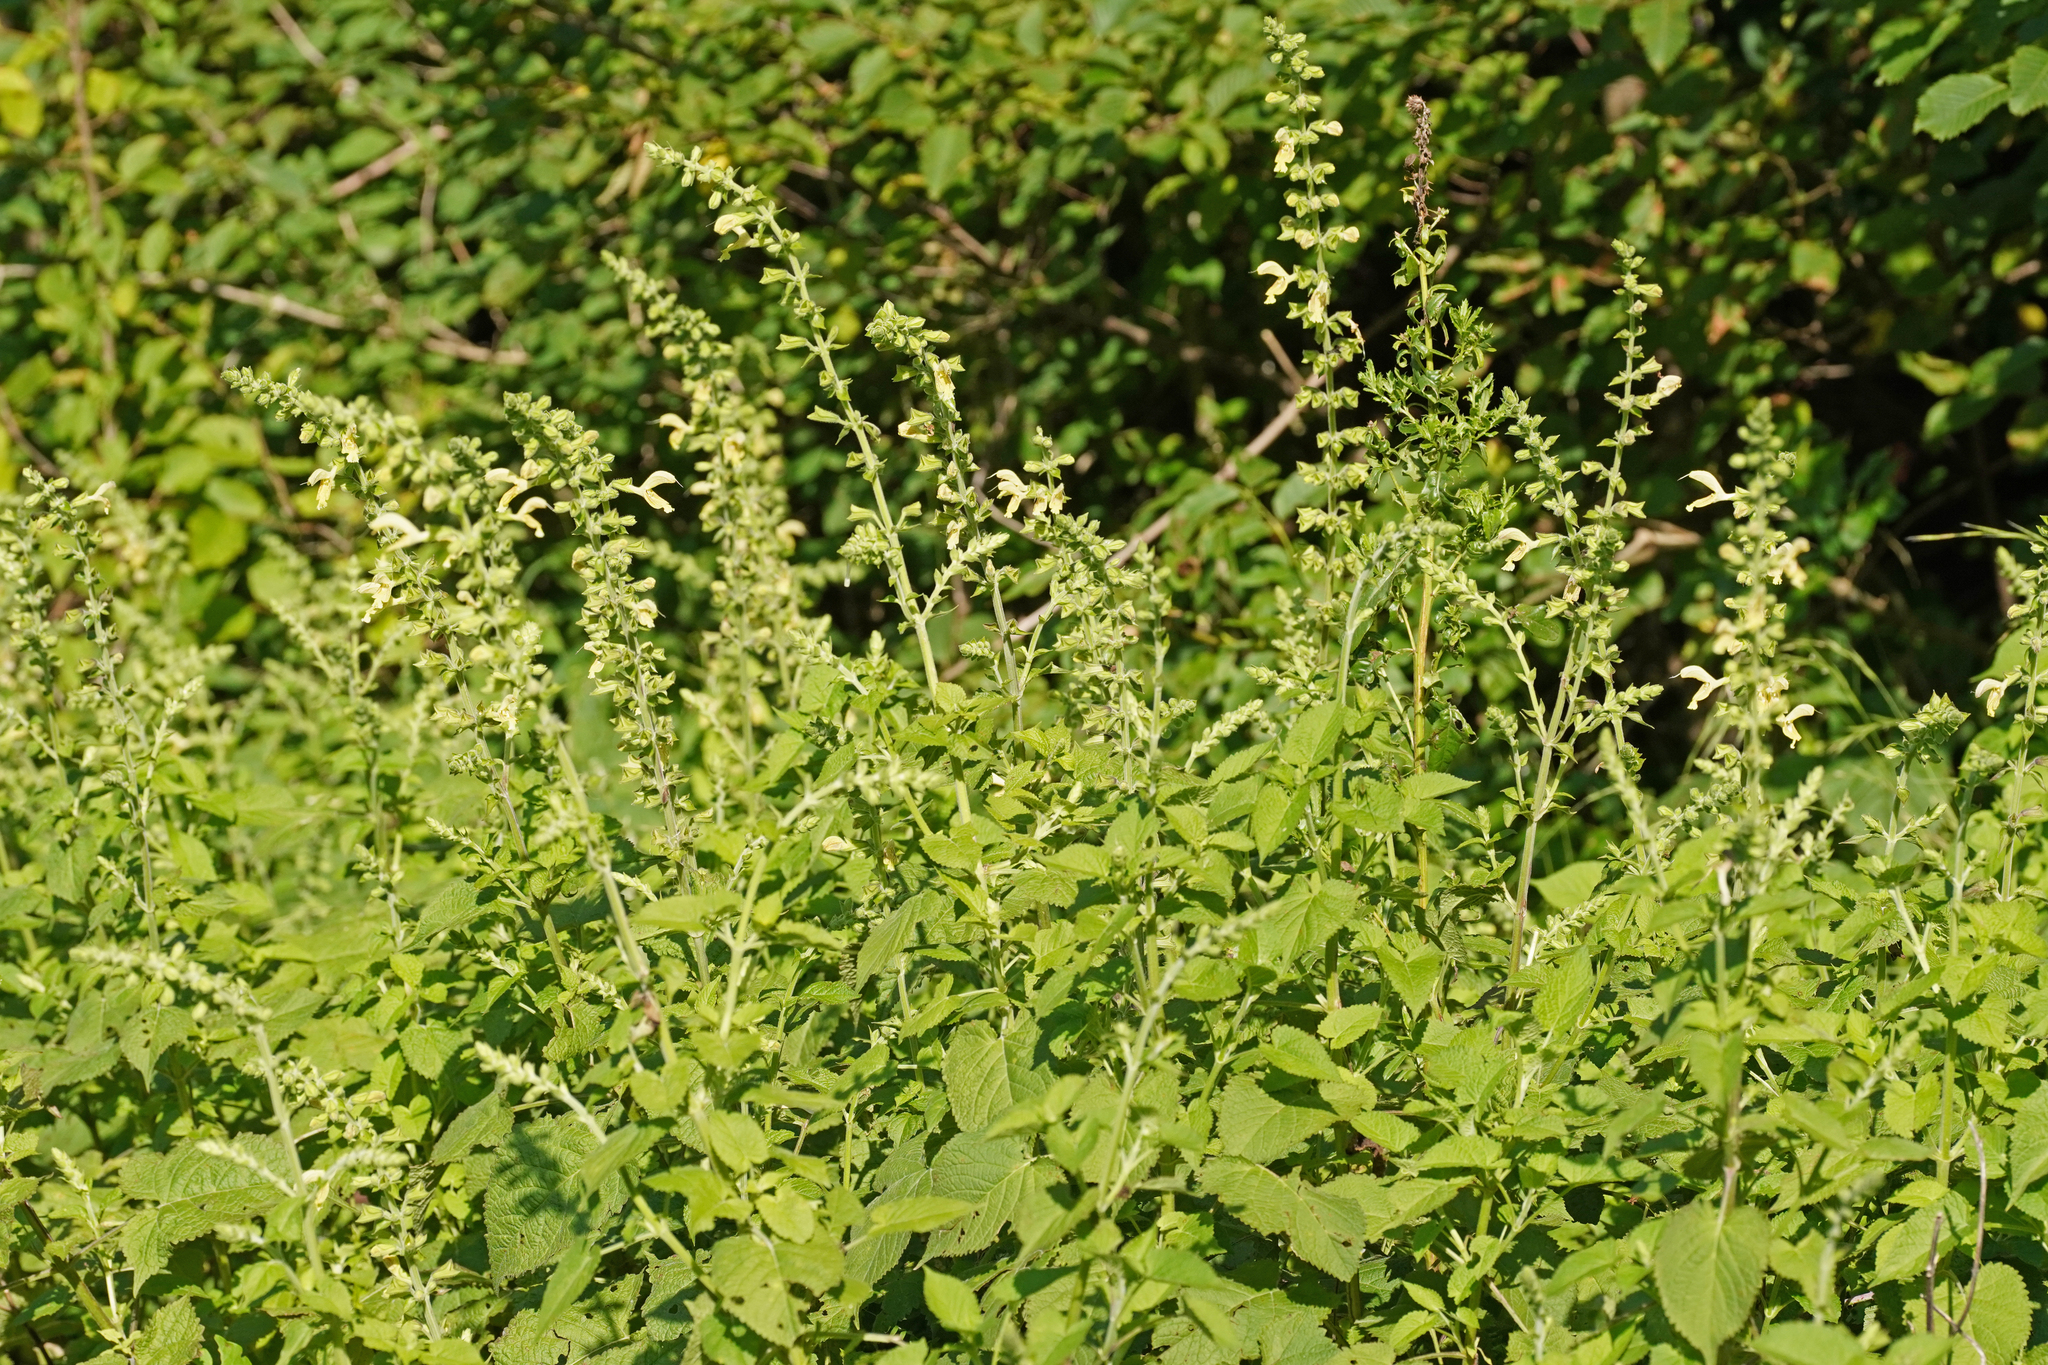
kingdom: Plantae
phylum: Tracheophyta
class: Magnoliopsida
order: Lamiales
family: Lamiaceae
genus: Salvia
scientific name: Salvia glutinosa
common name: Sticky clary
